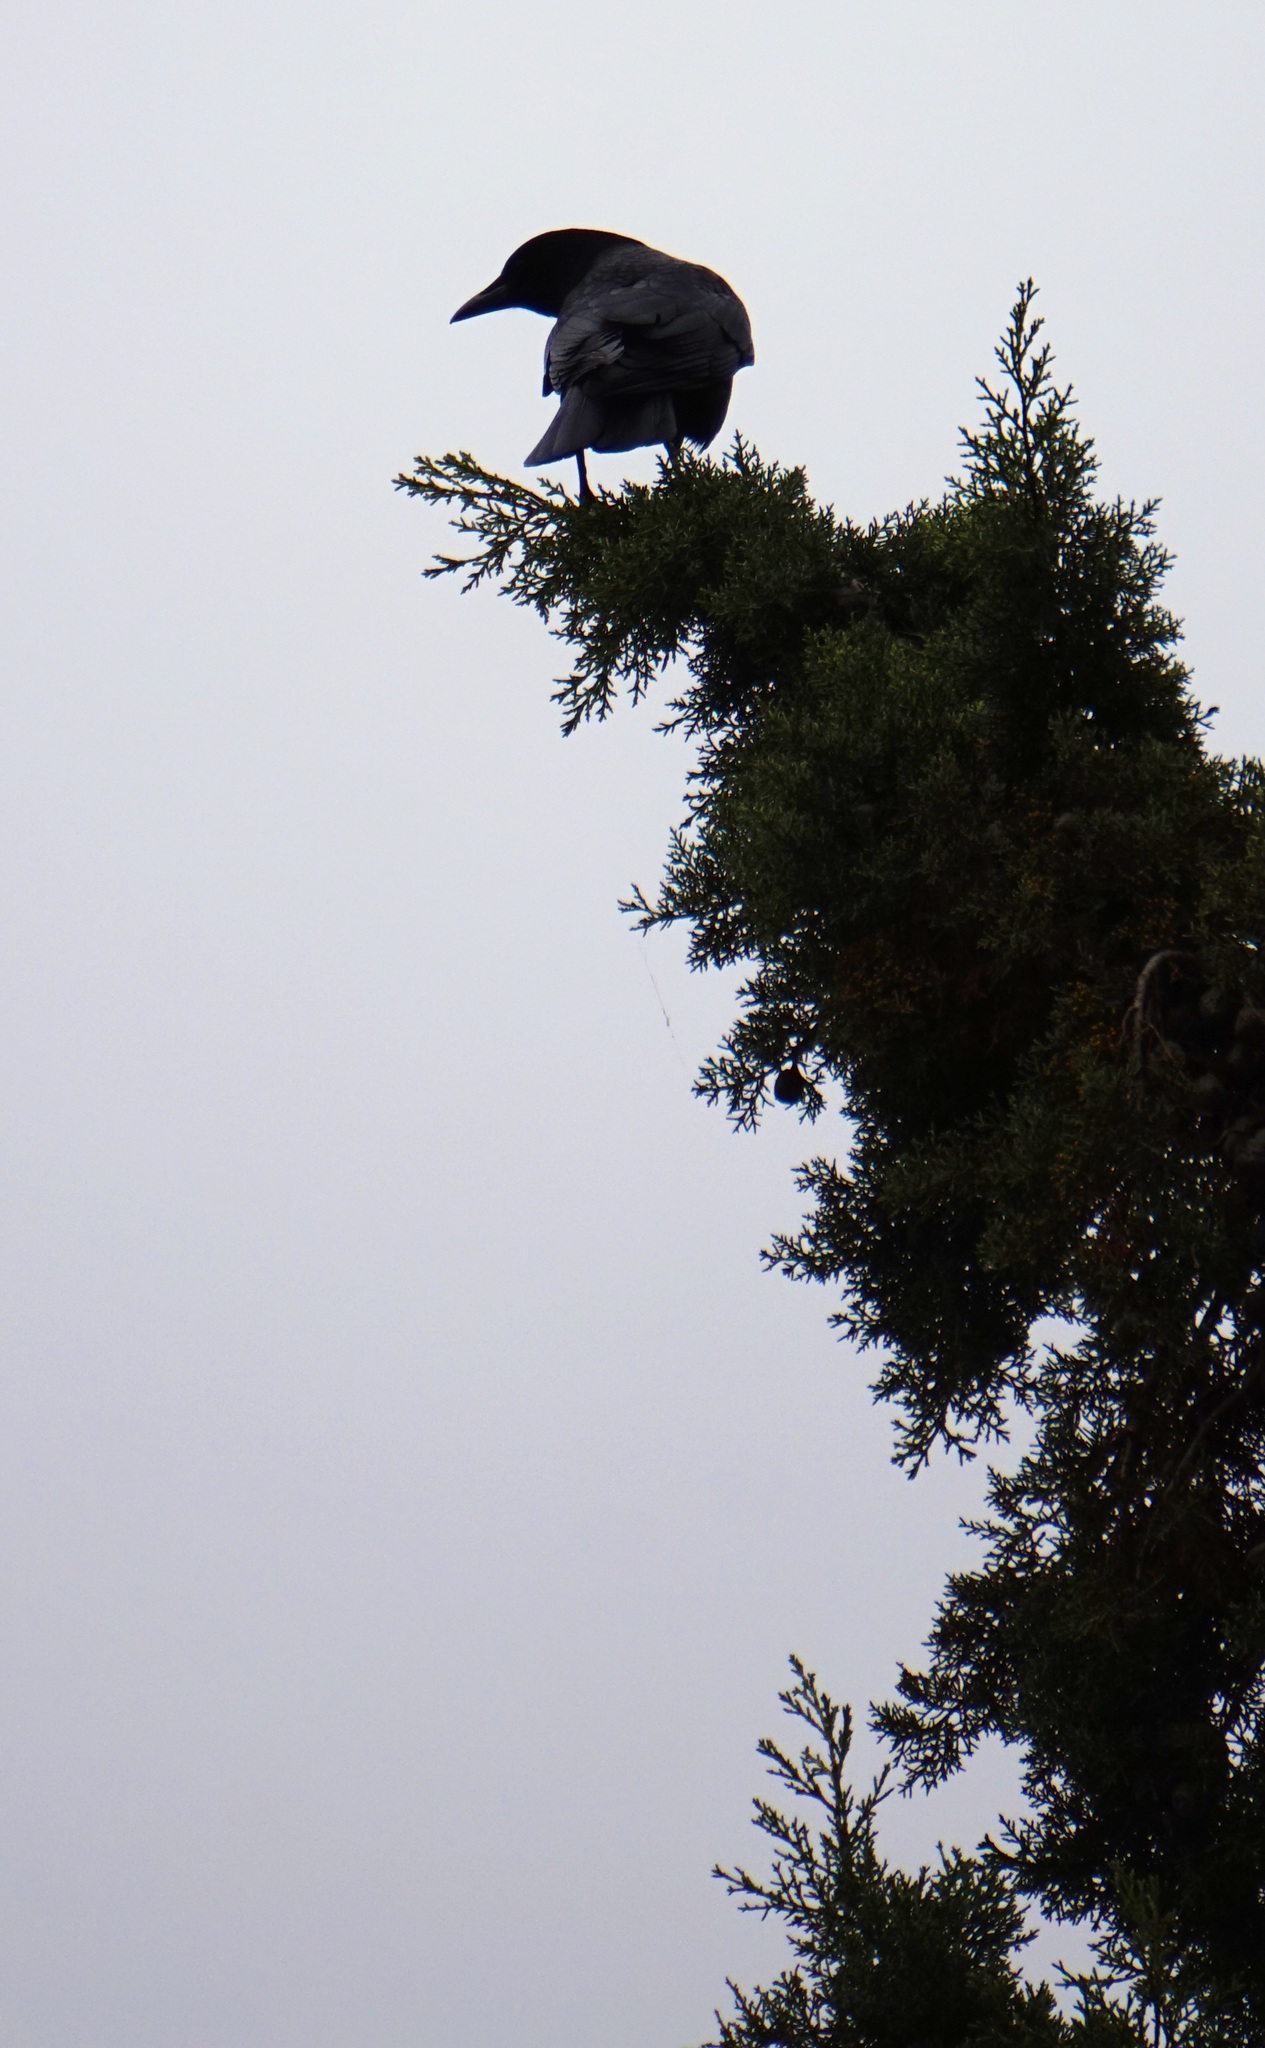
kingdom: Animalia
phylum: Chordata
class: Aves
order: Passeriformes
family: Corvidae
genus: Corvus
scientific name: Corvus brachyrhynchos
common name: American crow
